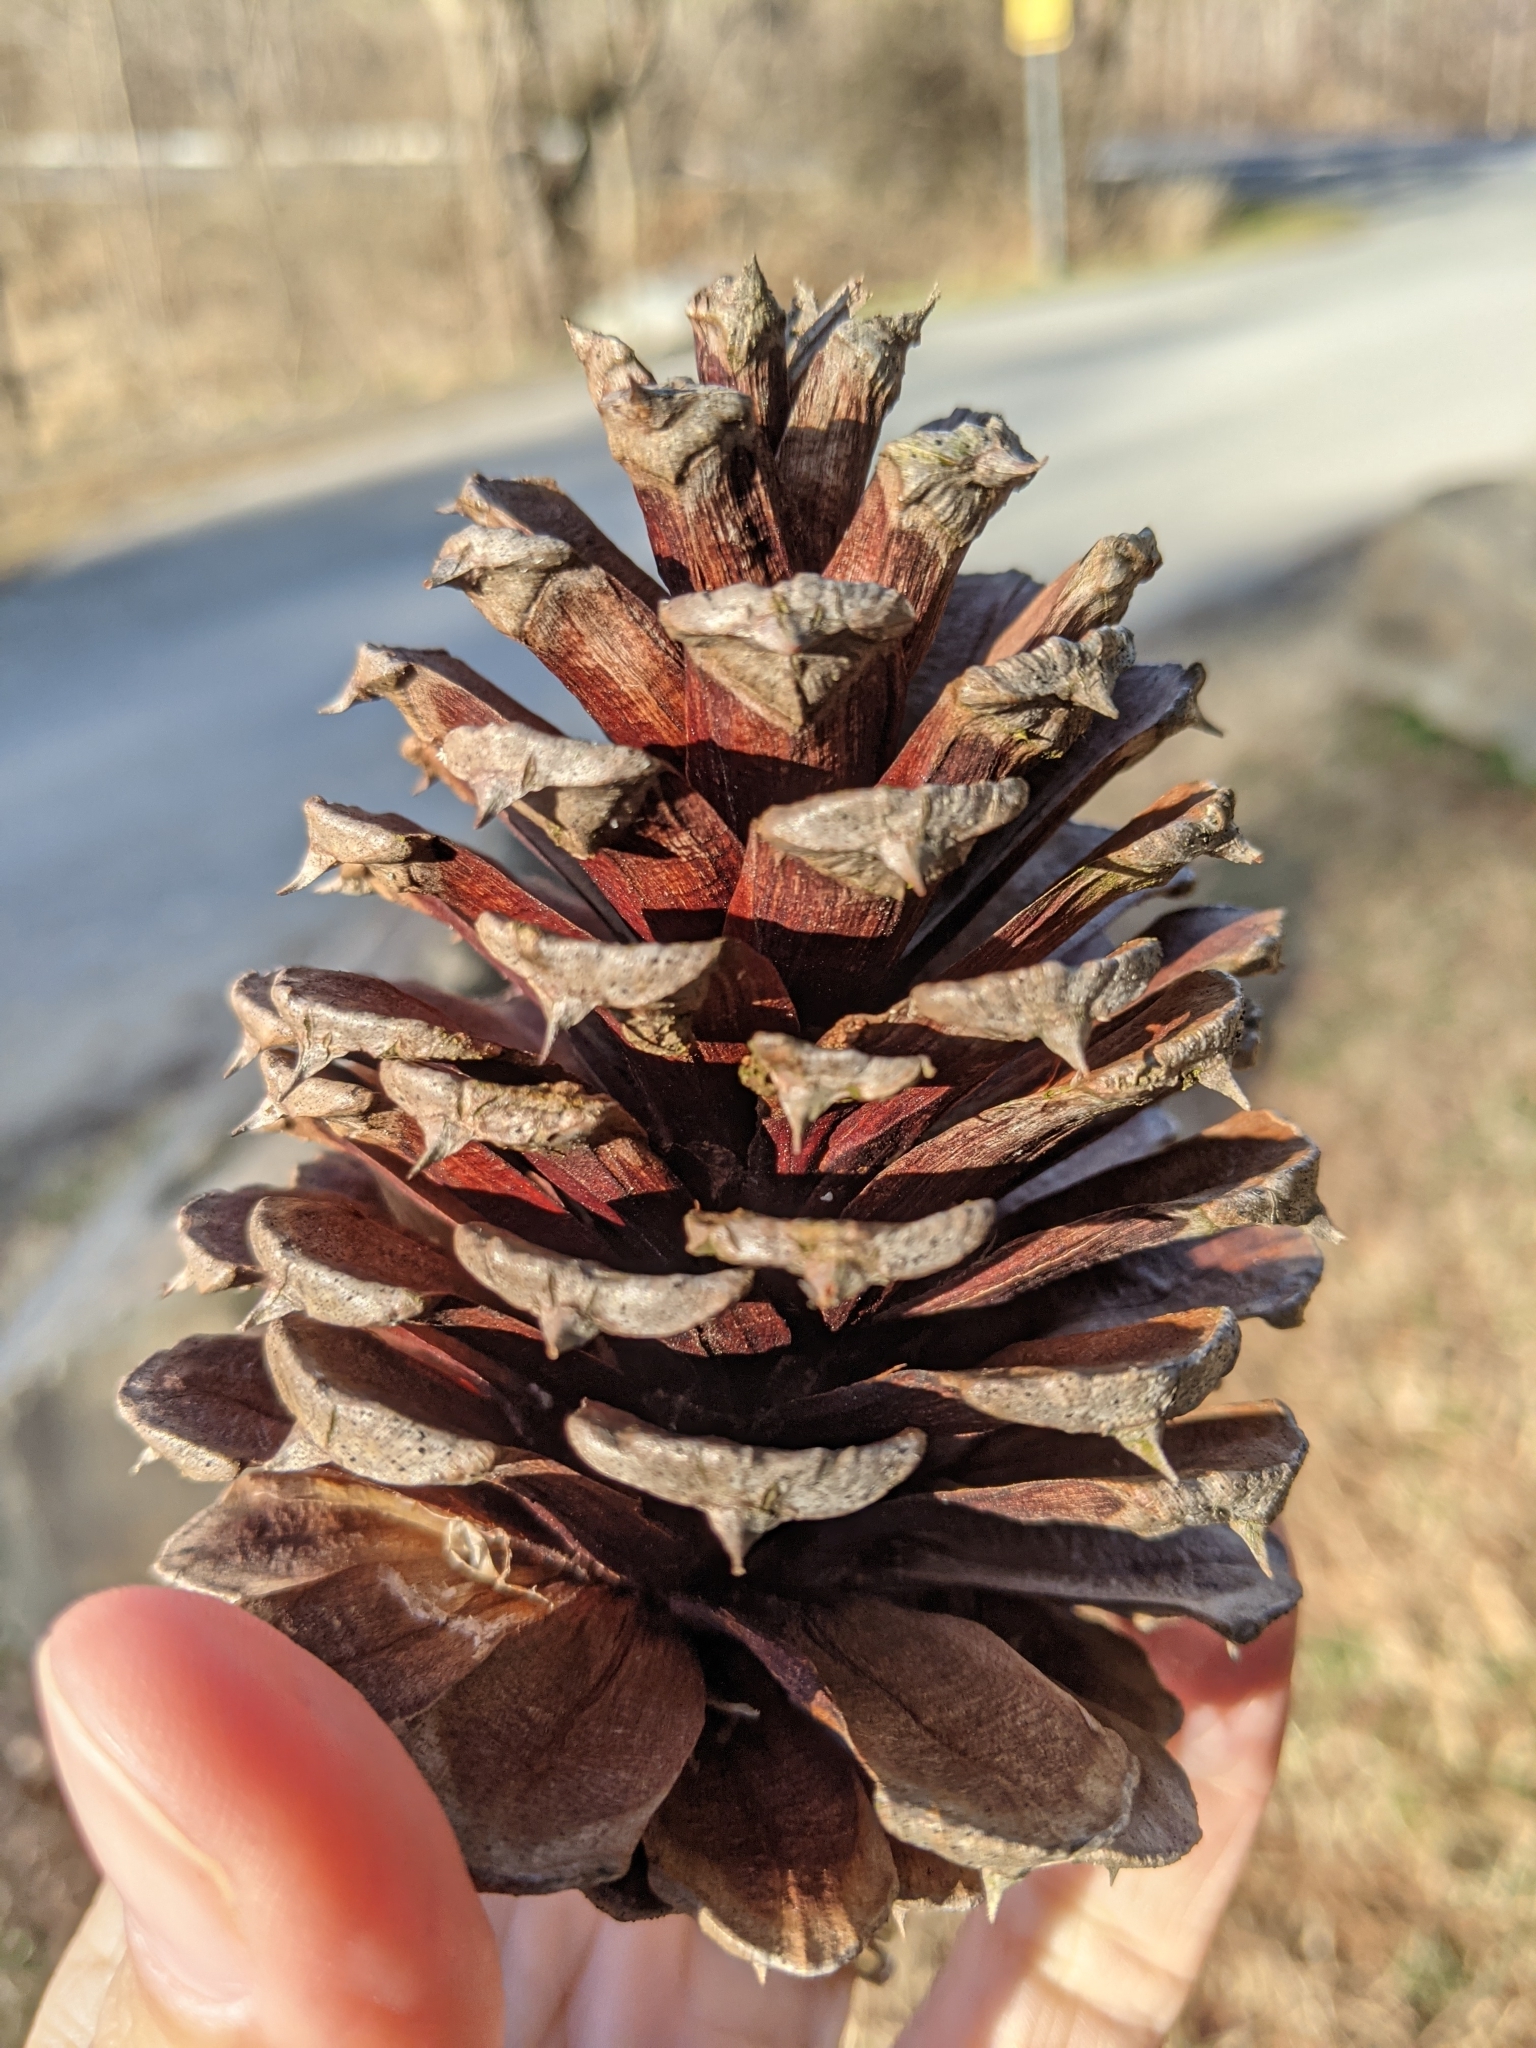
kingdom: Plantae
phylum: Tracheophyta
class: Pinopsida
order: Pinales
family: Pinaceae
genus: Pinus
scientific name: Pinus taeda
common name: Loblolly pine
